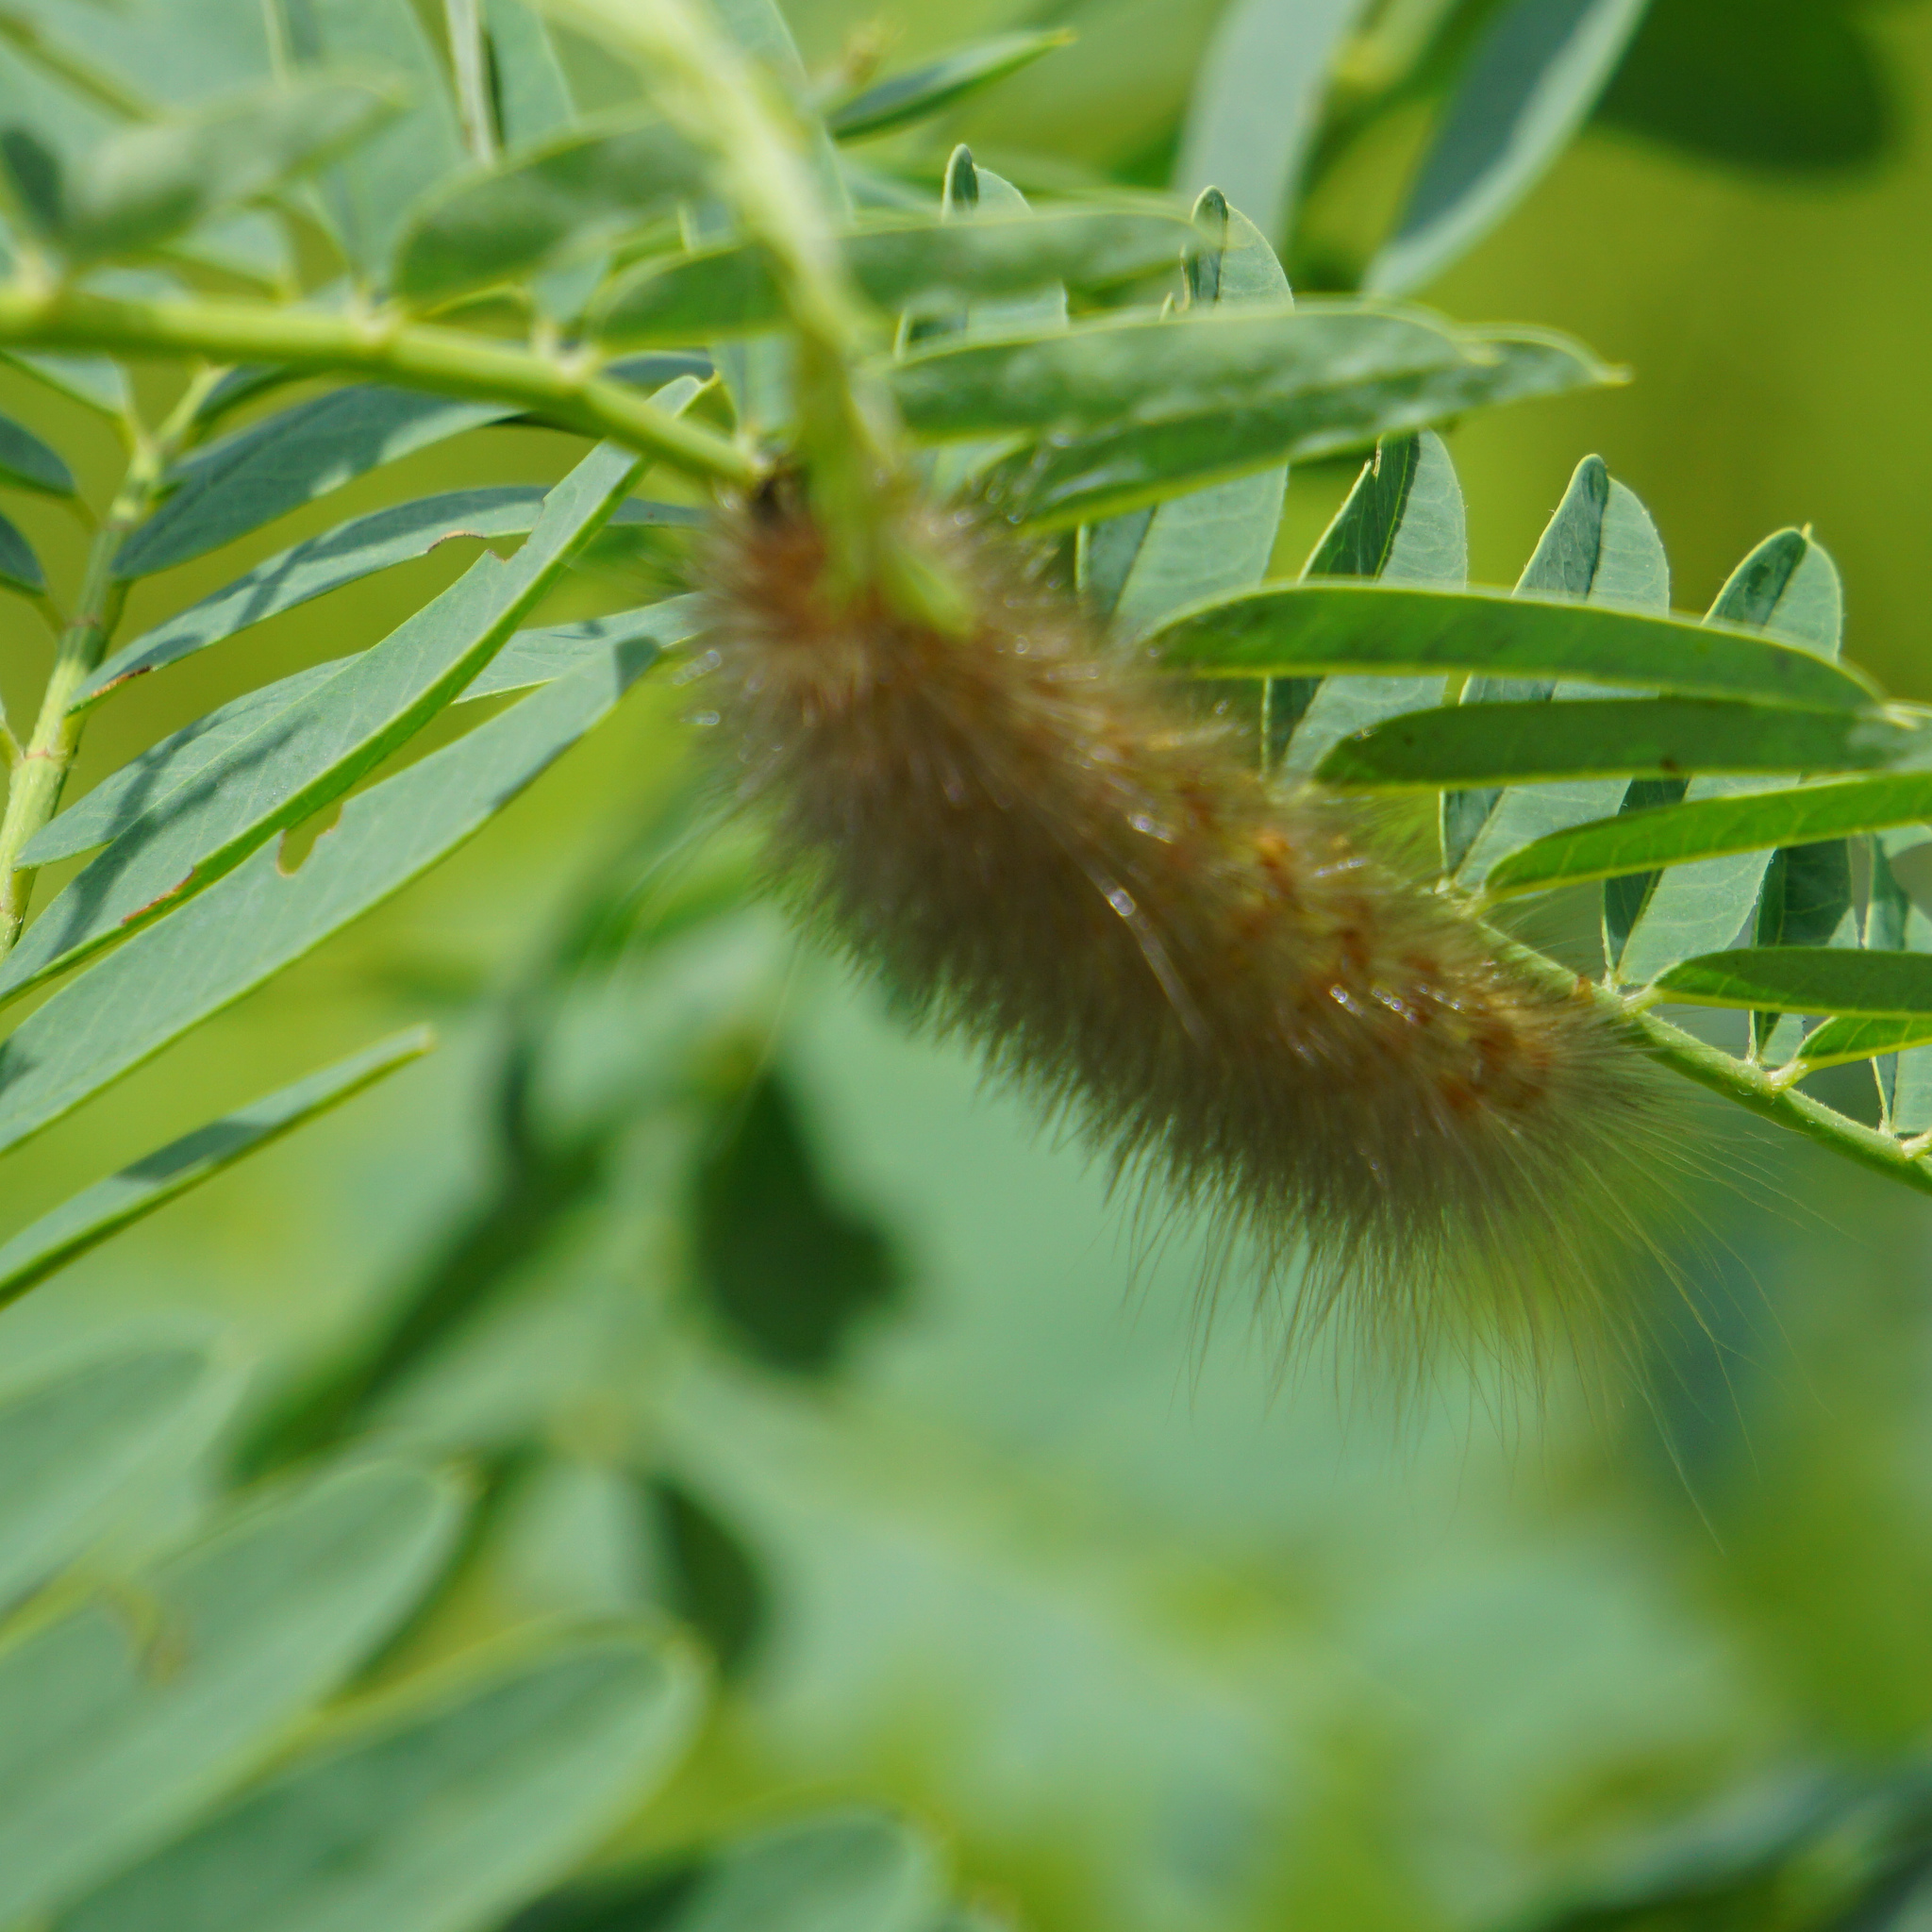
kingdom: Animalia
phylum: Arthropoda
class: Insecta
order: Lepidoptera
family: Erebidae
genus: Estigmene
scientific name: Estigmene acrea
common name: Salt marsh moth
